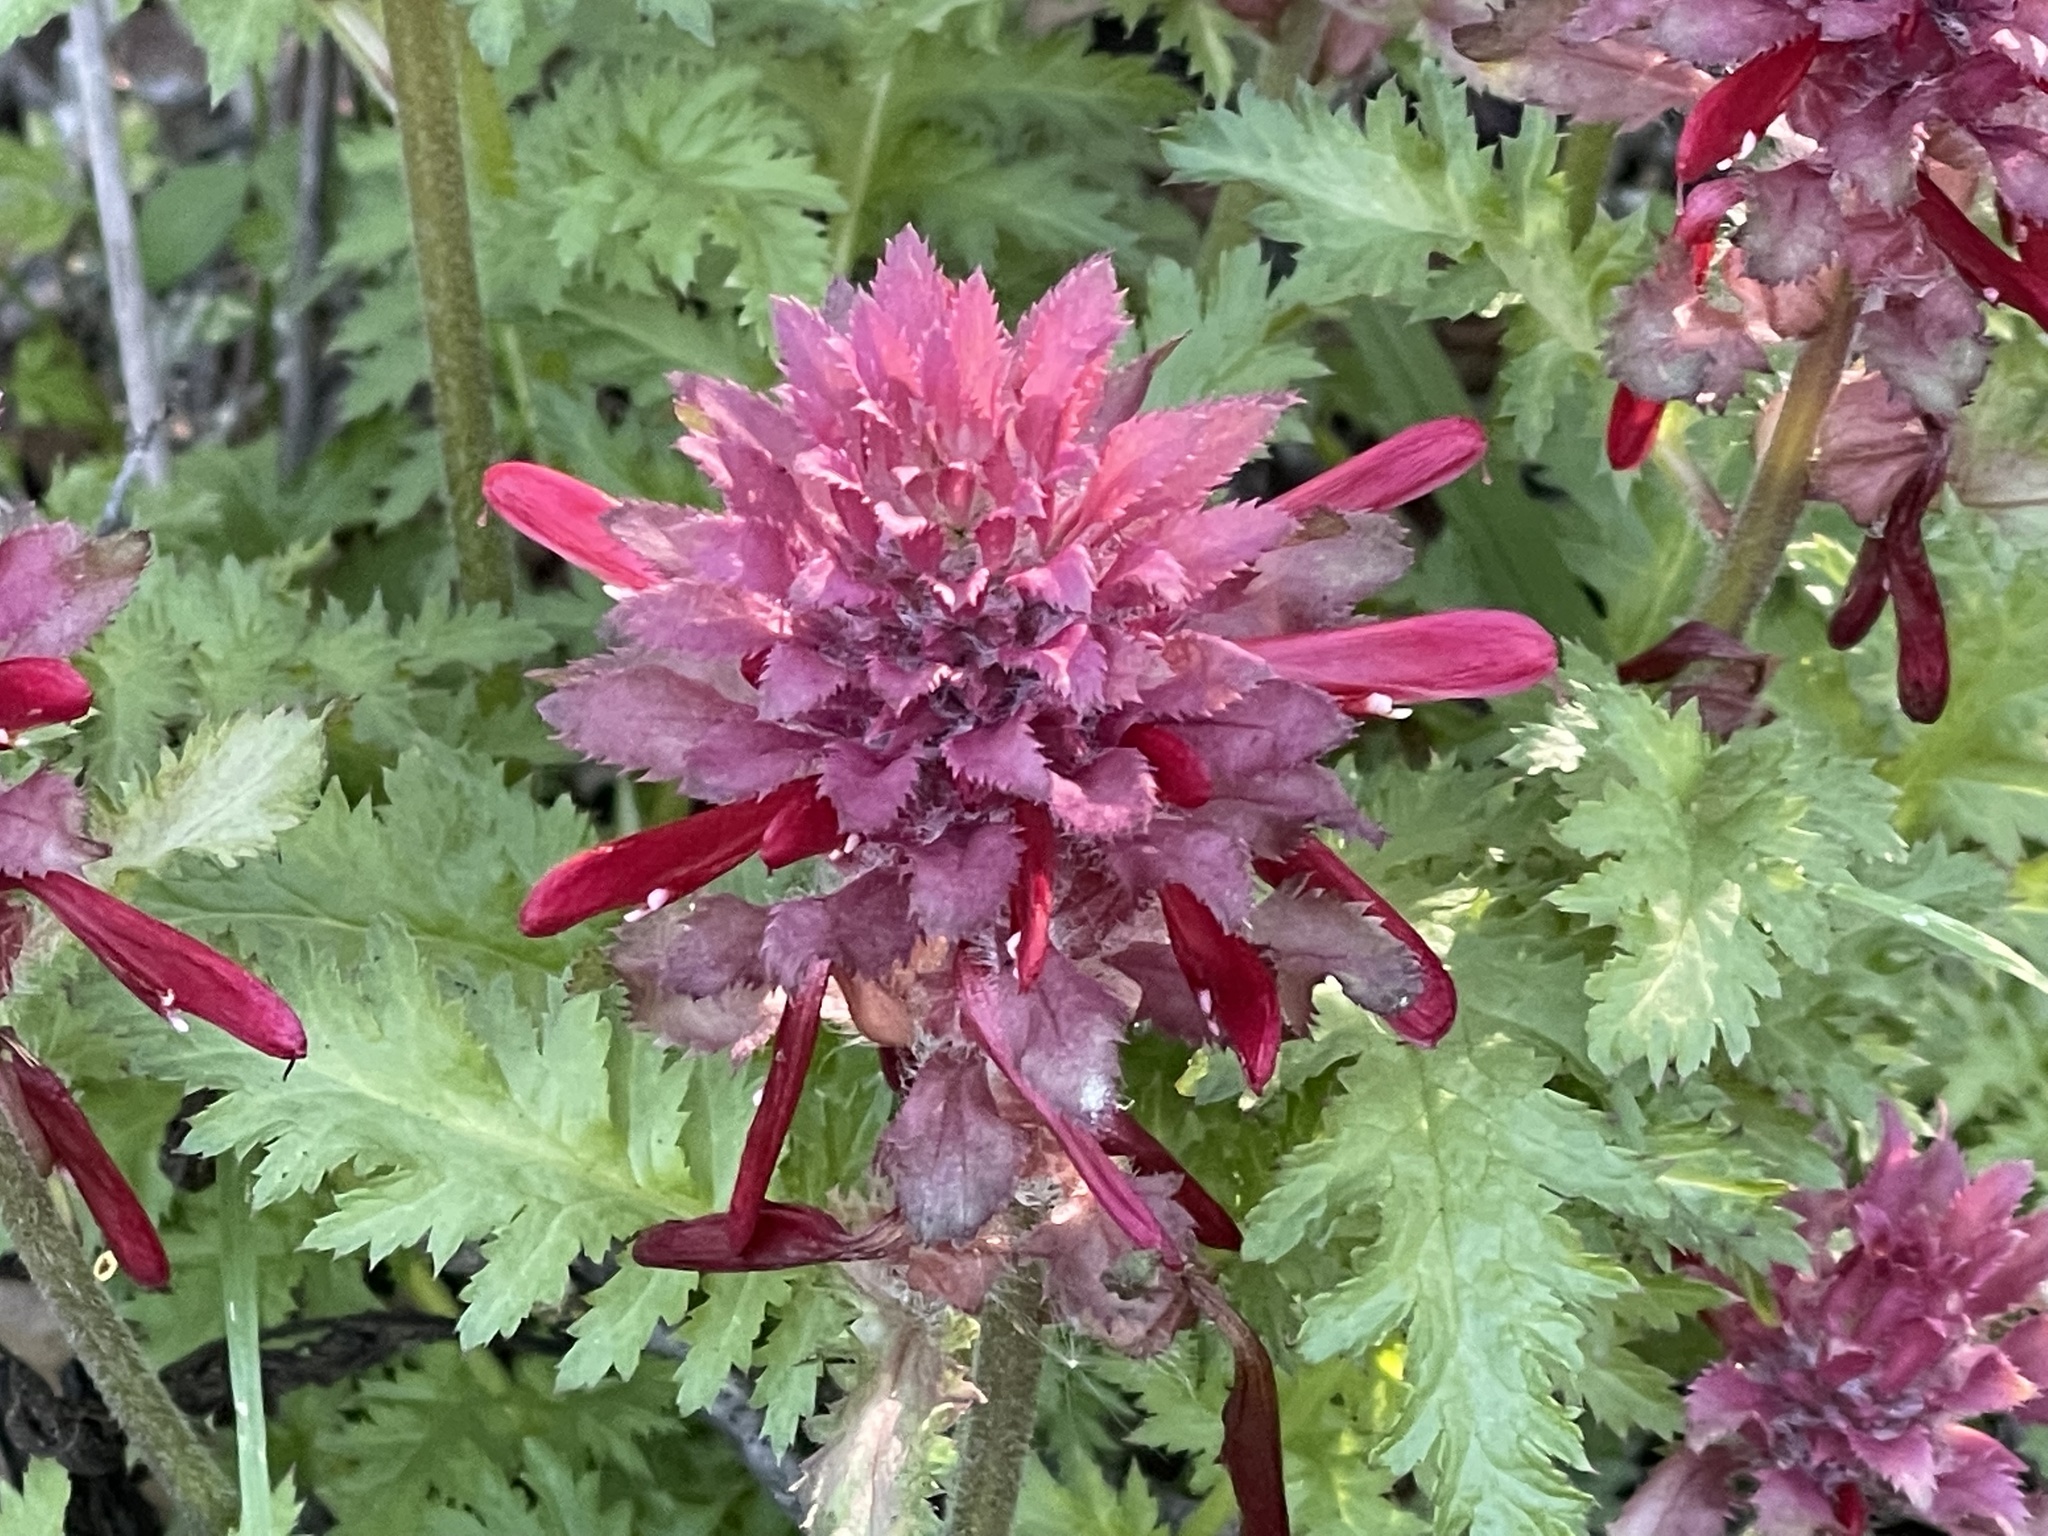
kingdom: Plantae
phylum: Tracheophyta
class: Magnoliopsida
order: Lamiales
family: Orobanchaceae
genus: Pedicularis
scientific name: Pedicularis densiflora
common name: Indian warrior
